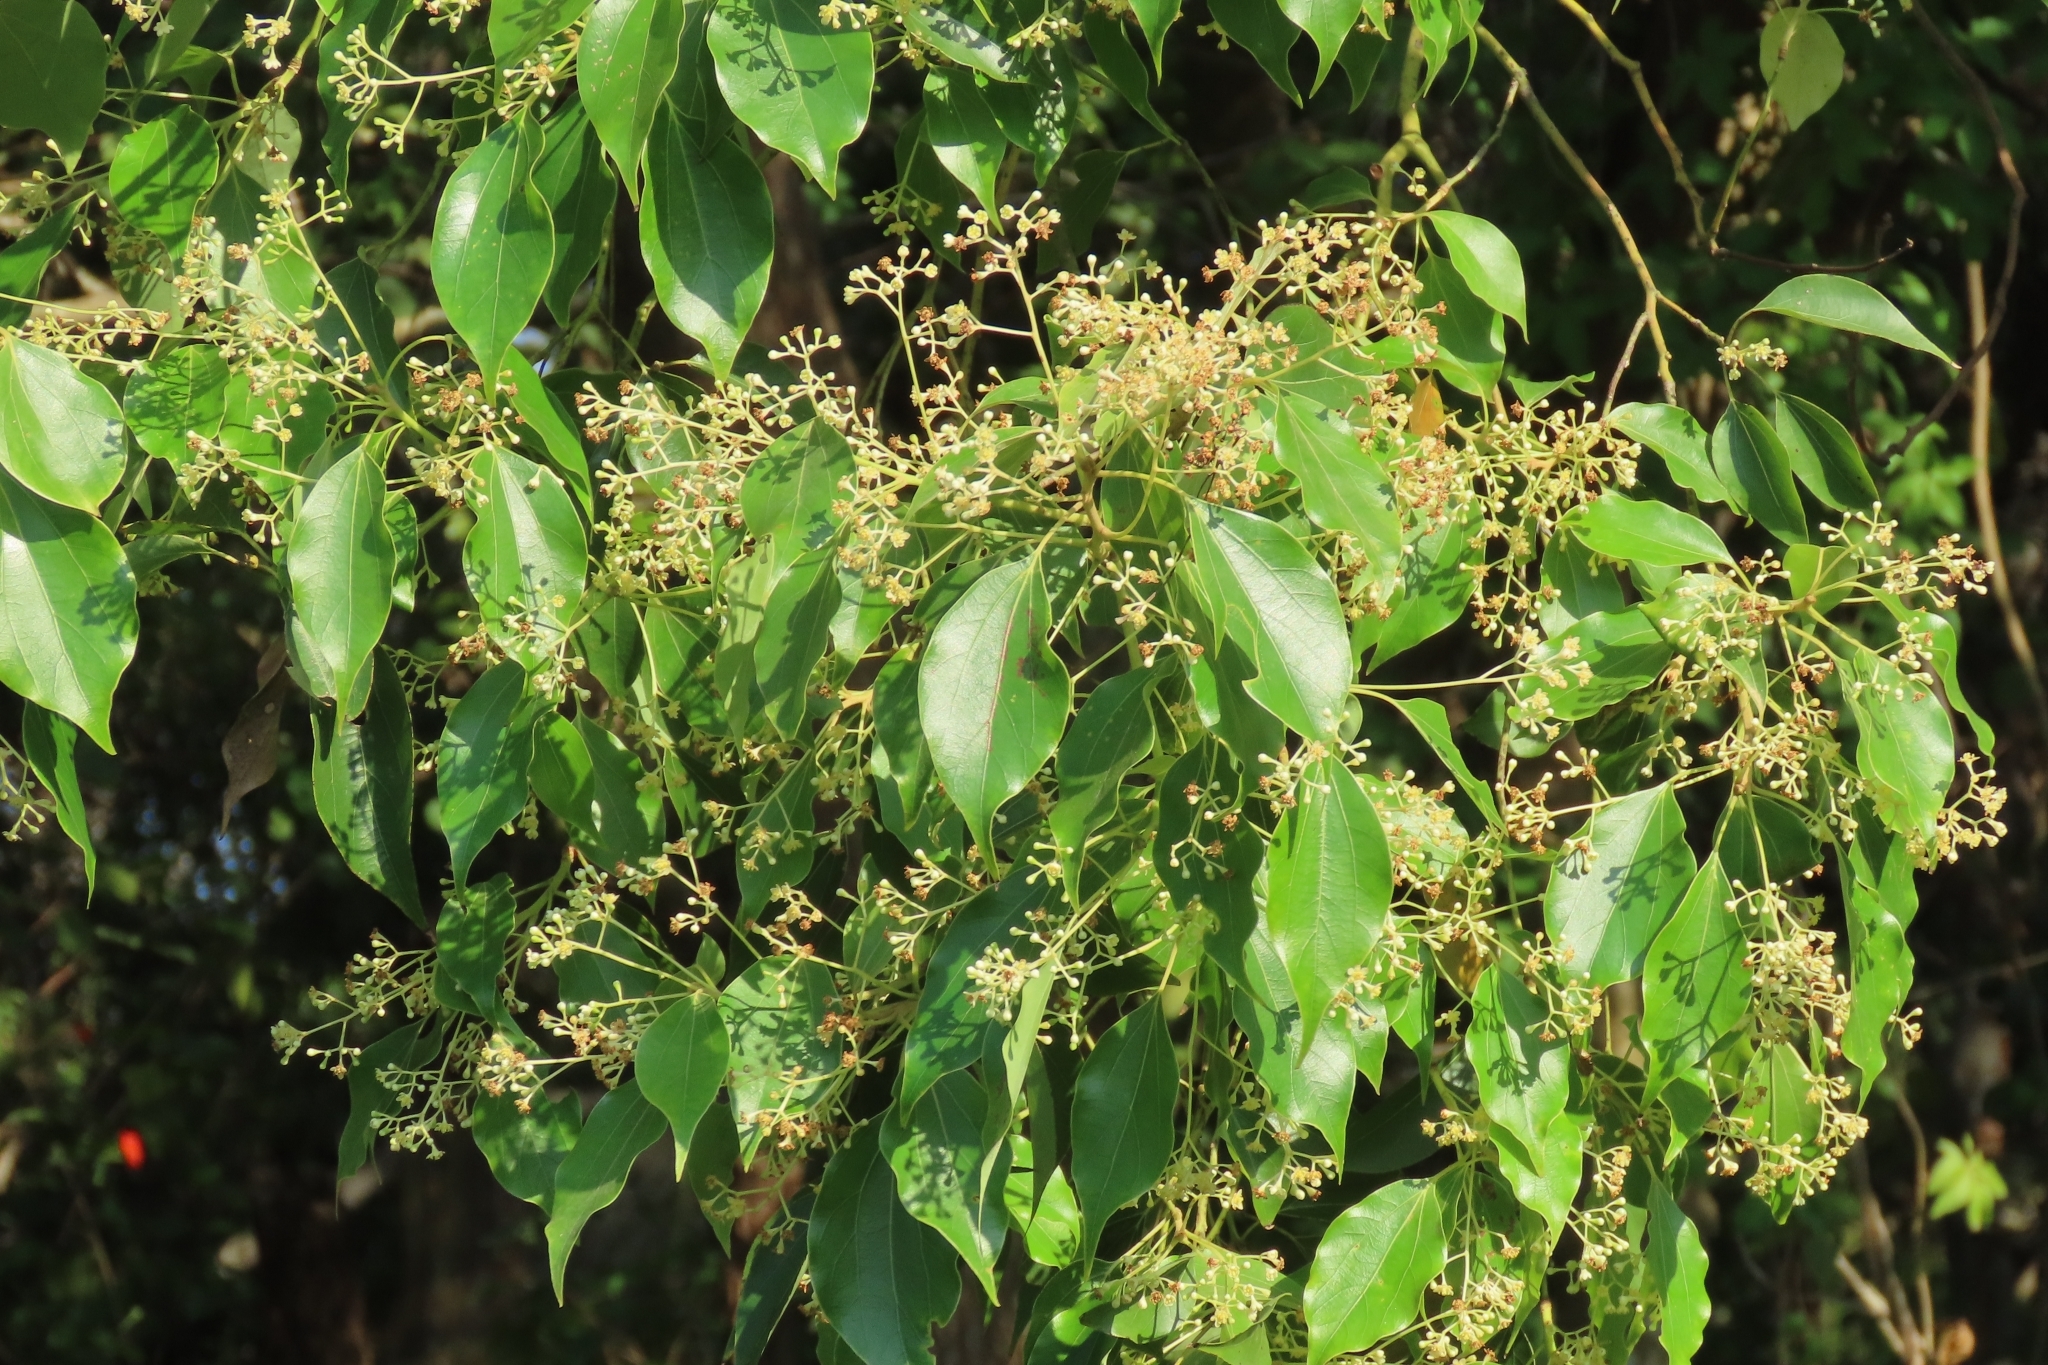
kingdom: Plantae
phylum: Tracheophyta
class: Magnoliopsida
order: Laurales
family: Lauraceae
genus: Cinnamomum
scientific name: Cinnamomum camphora
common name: Camphortree
